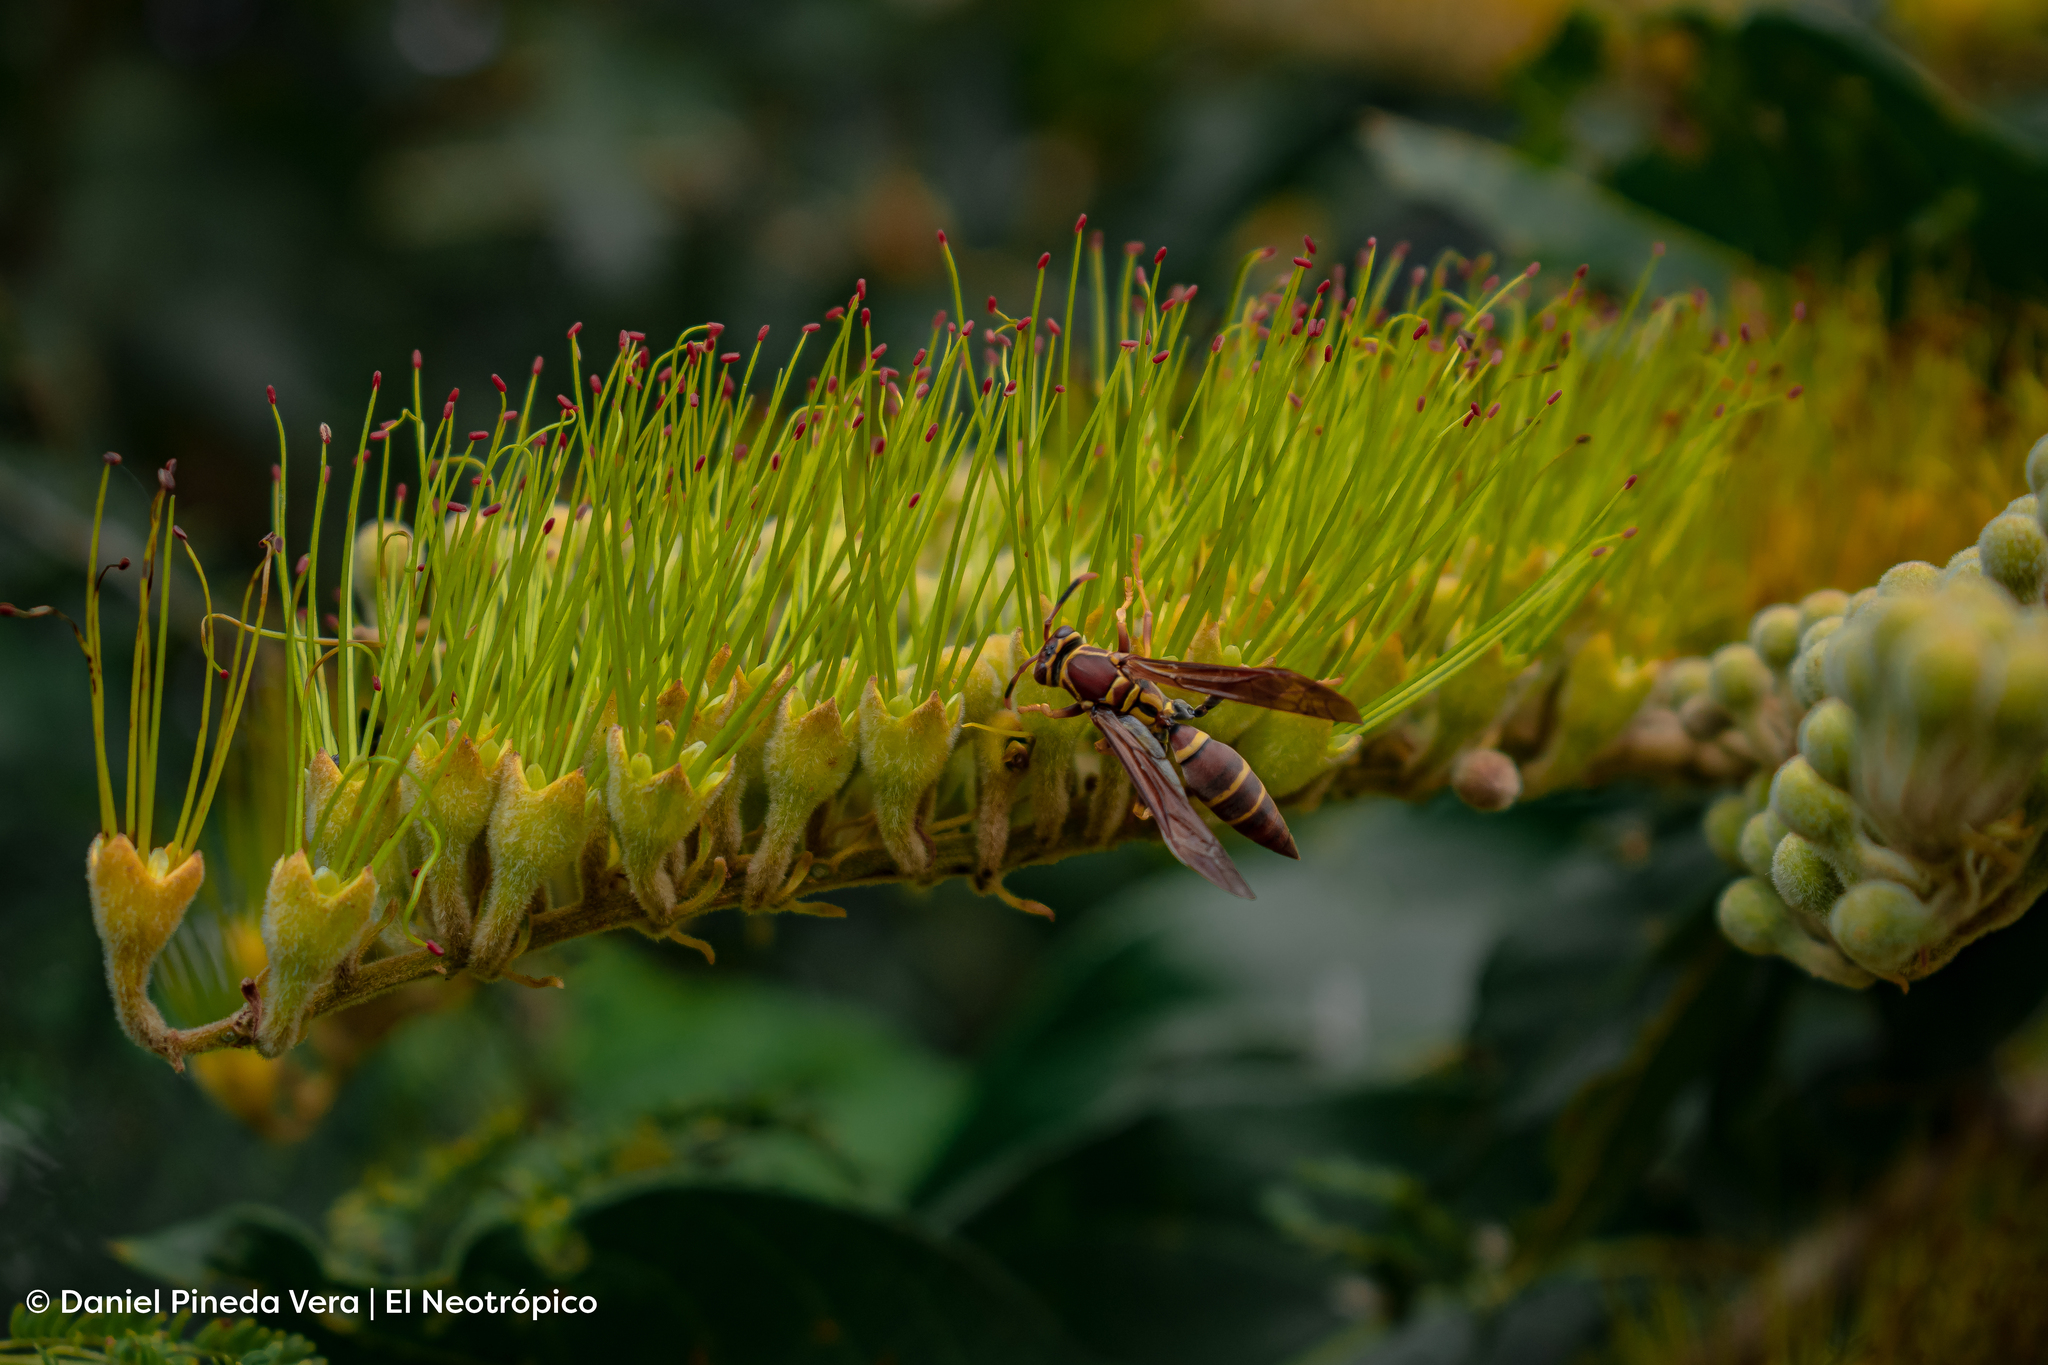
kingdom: Animalia
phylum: Arthropoda
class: Insecta
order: Hymenoptera
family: Eumenidae
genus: Polistes
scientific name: Polistes instabilis
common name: Unstable paper wasp
